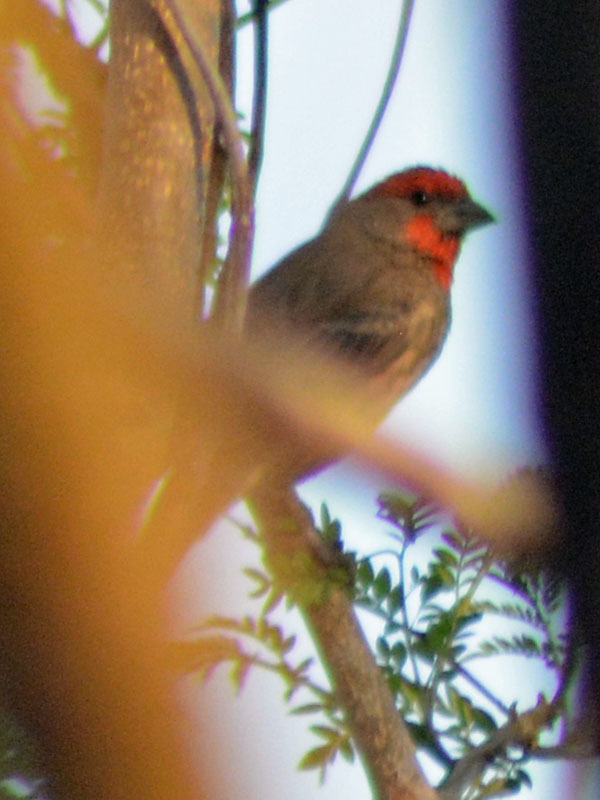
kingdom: Animalia
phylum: Chordata
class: Aves
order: Passeriformes
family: Fringillidae
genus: Haemorhous
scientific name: Haemorhous mexicanus
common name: House finch
